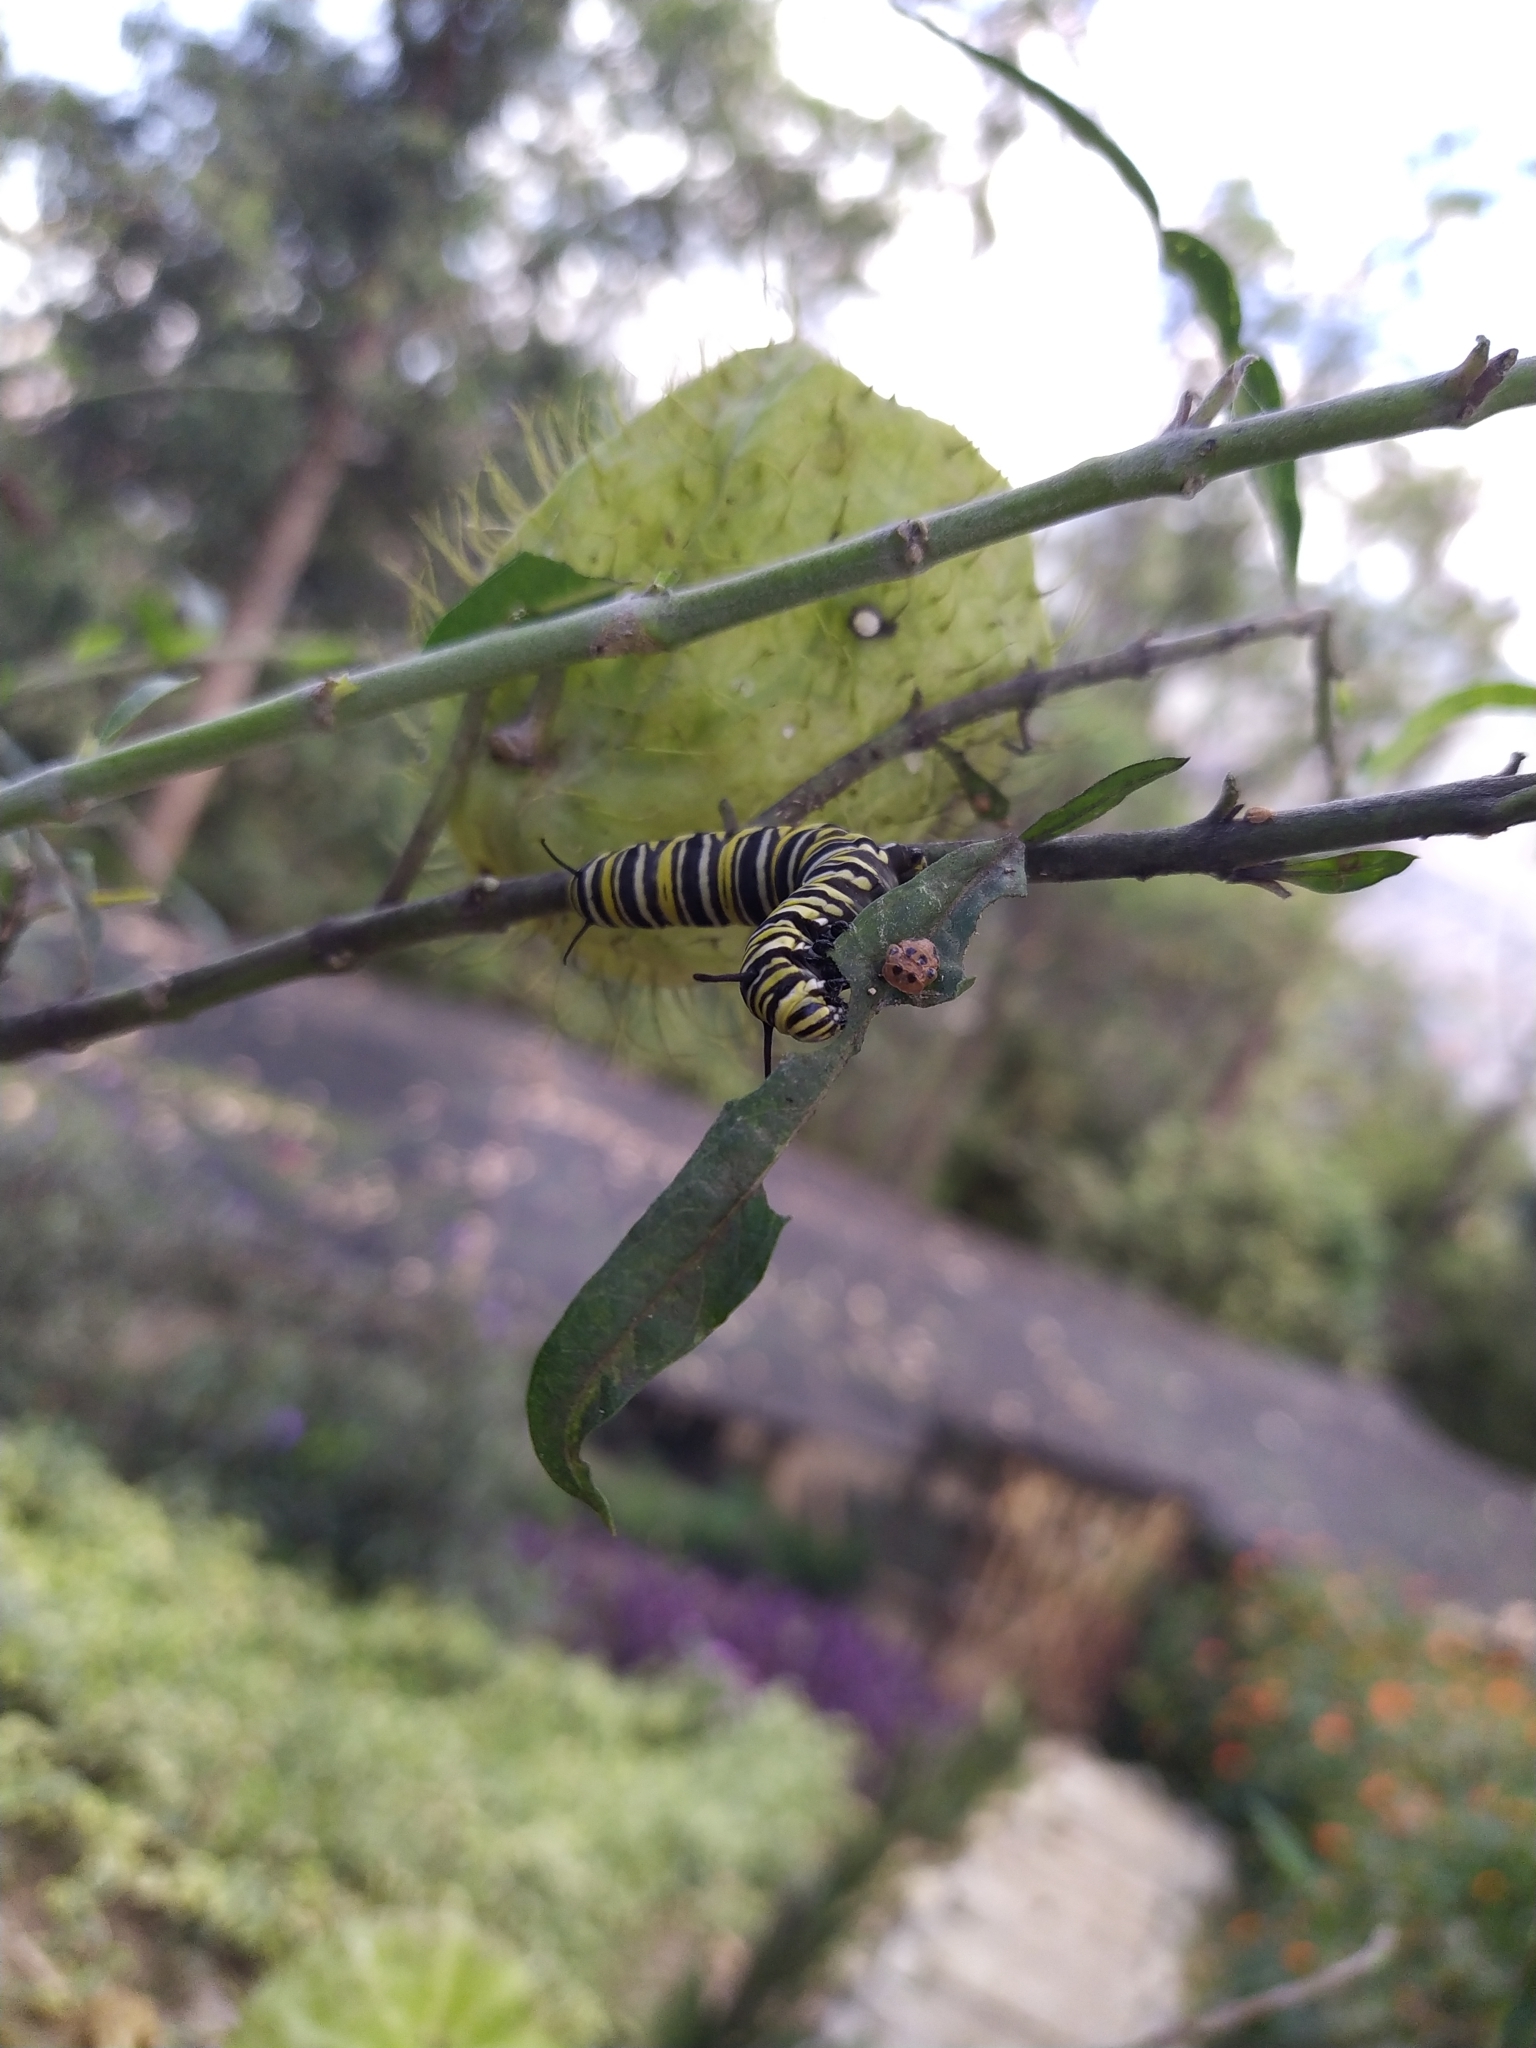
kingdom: Animalia
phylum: Arthropoda
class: Insecta
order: Lepidoptera
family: Nymphalidae
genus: Danaus
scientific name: Danaus plexippus
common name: Monarch
